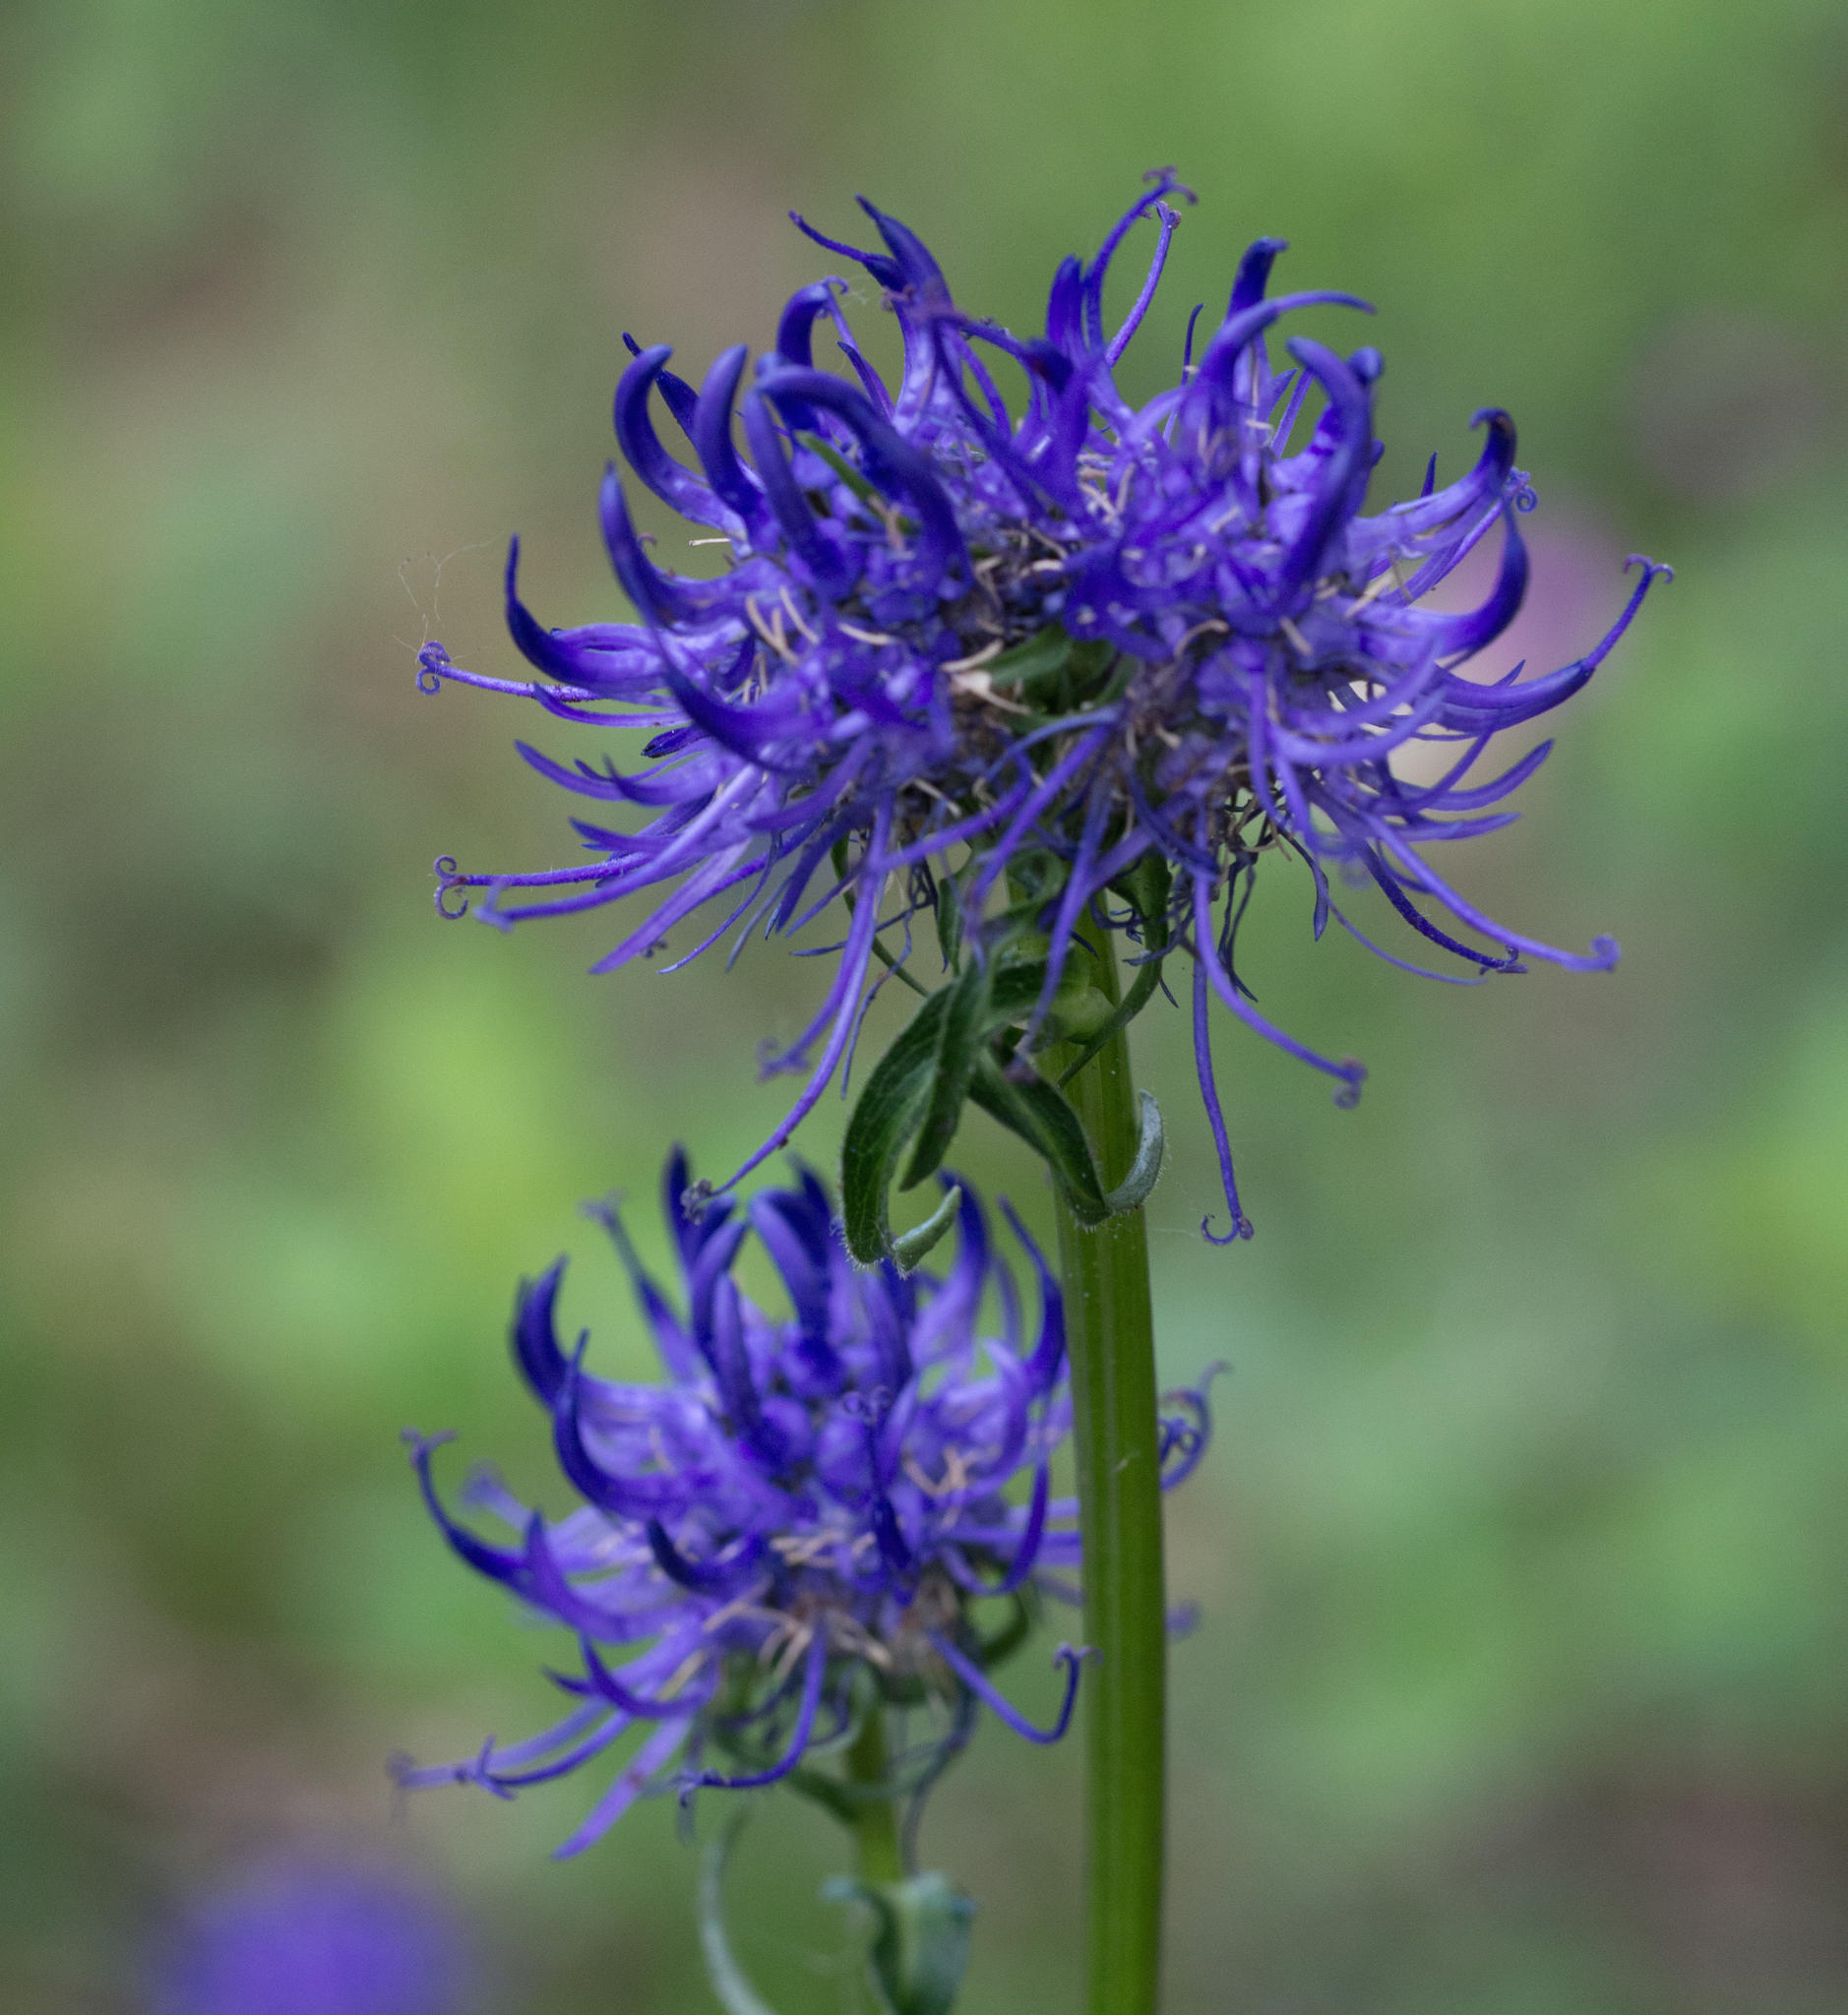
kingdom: Plantae
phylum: Tracheophyta
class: Magnoliopsida
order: Asterales
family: Campanulaceae
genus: Phyteuma
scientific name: Phyteuma orbiculare
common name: Round-headed rampion
